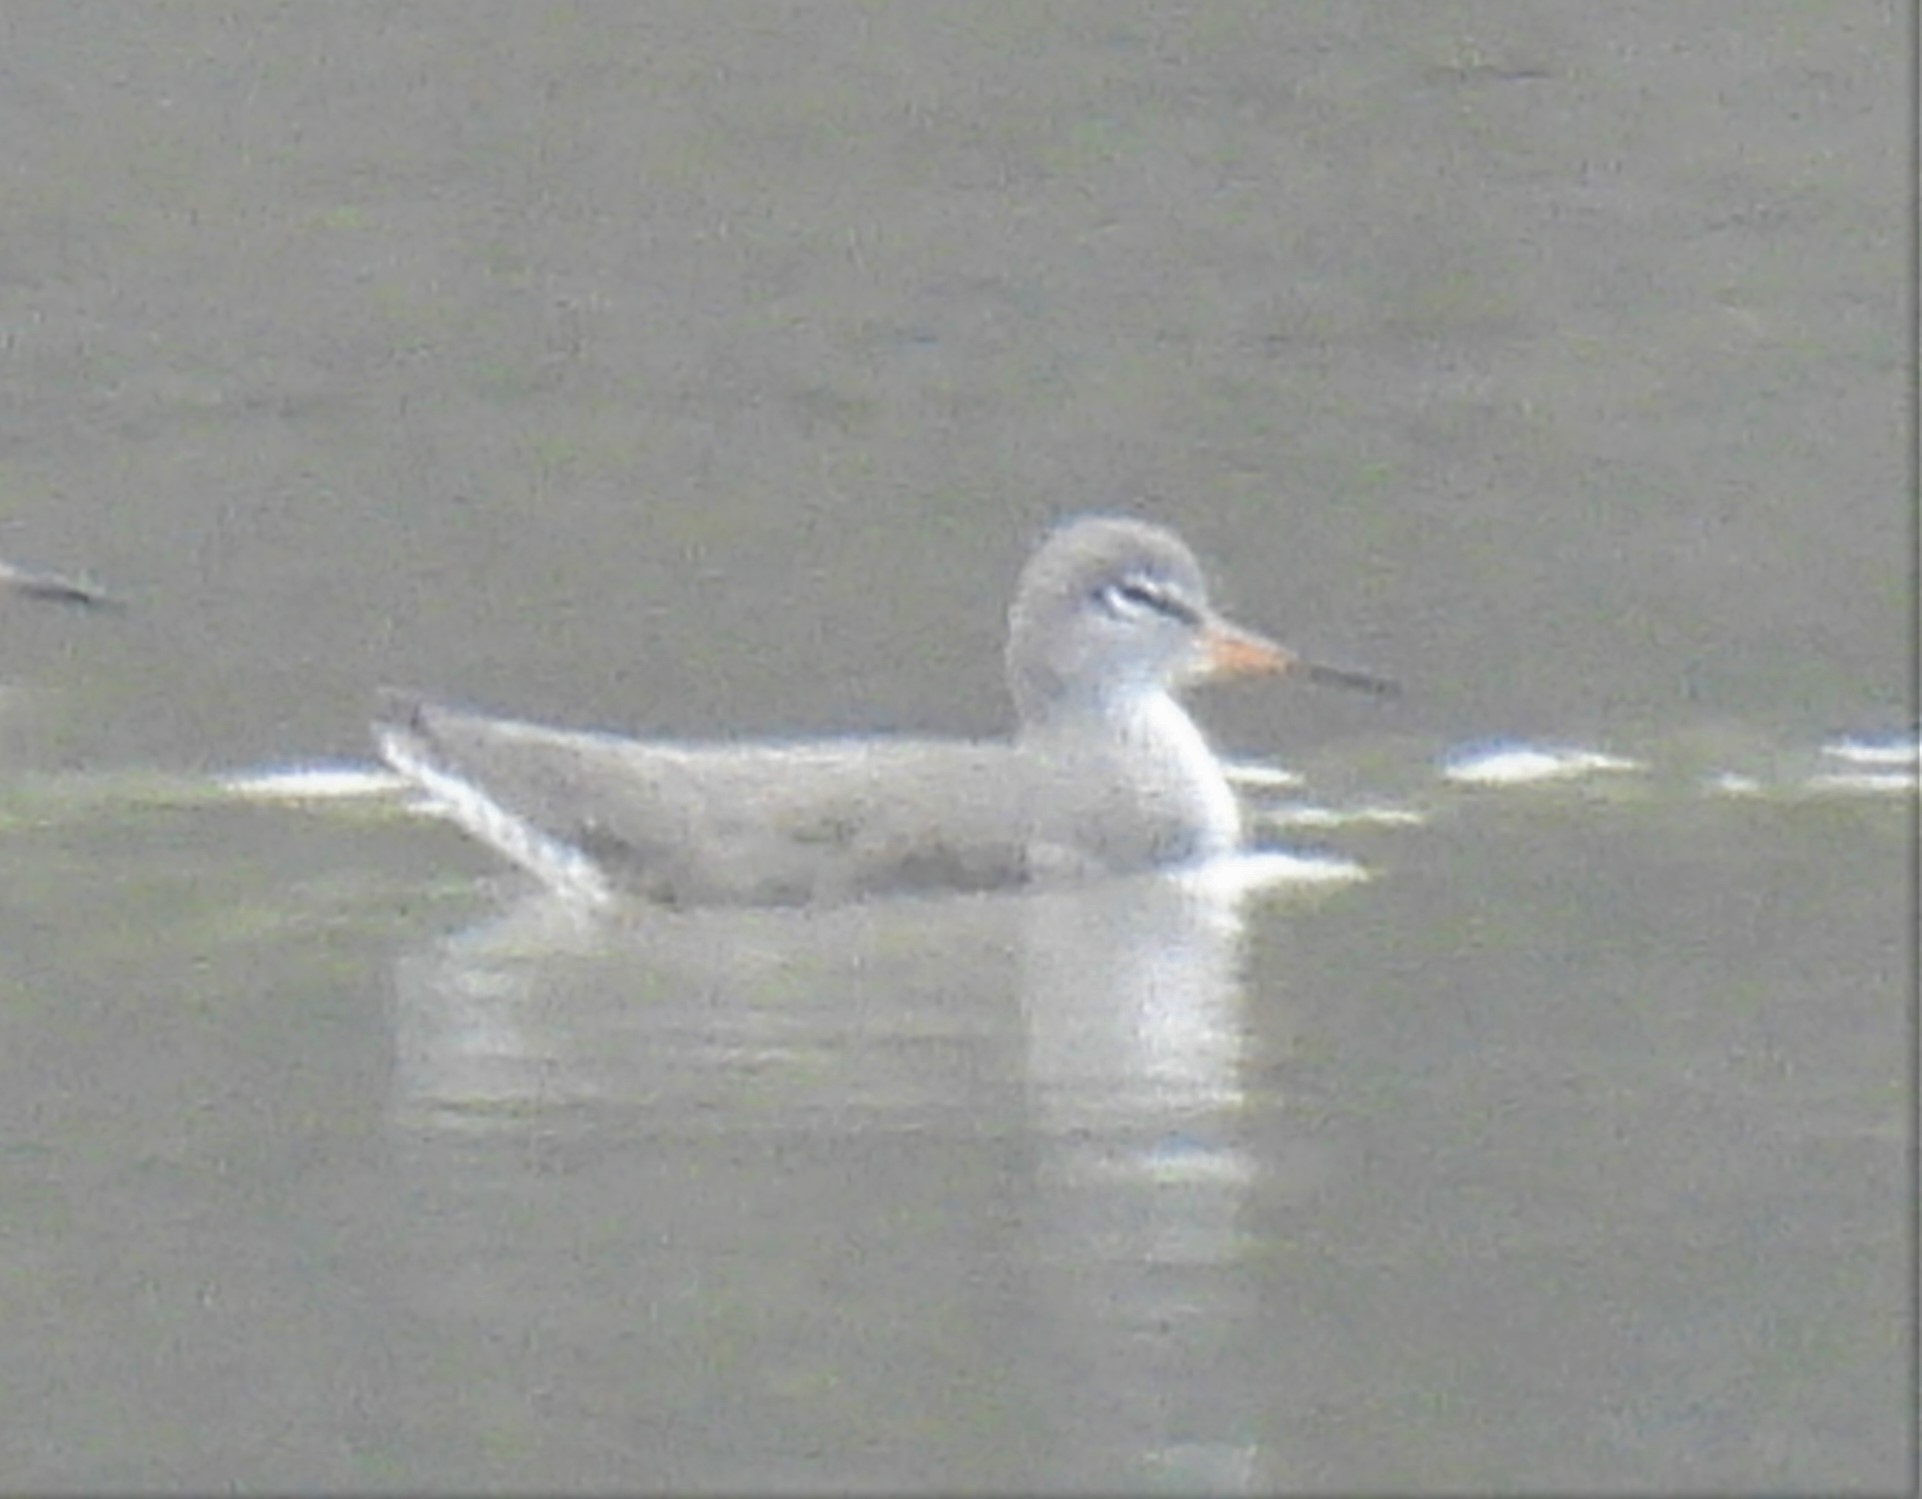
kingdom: Animalia
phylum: Chordata
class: Aves
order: Charadriiformes
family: Scolopacidae
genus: Tringa
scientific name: Tringa totanus
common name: Common redshank
